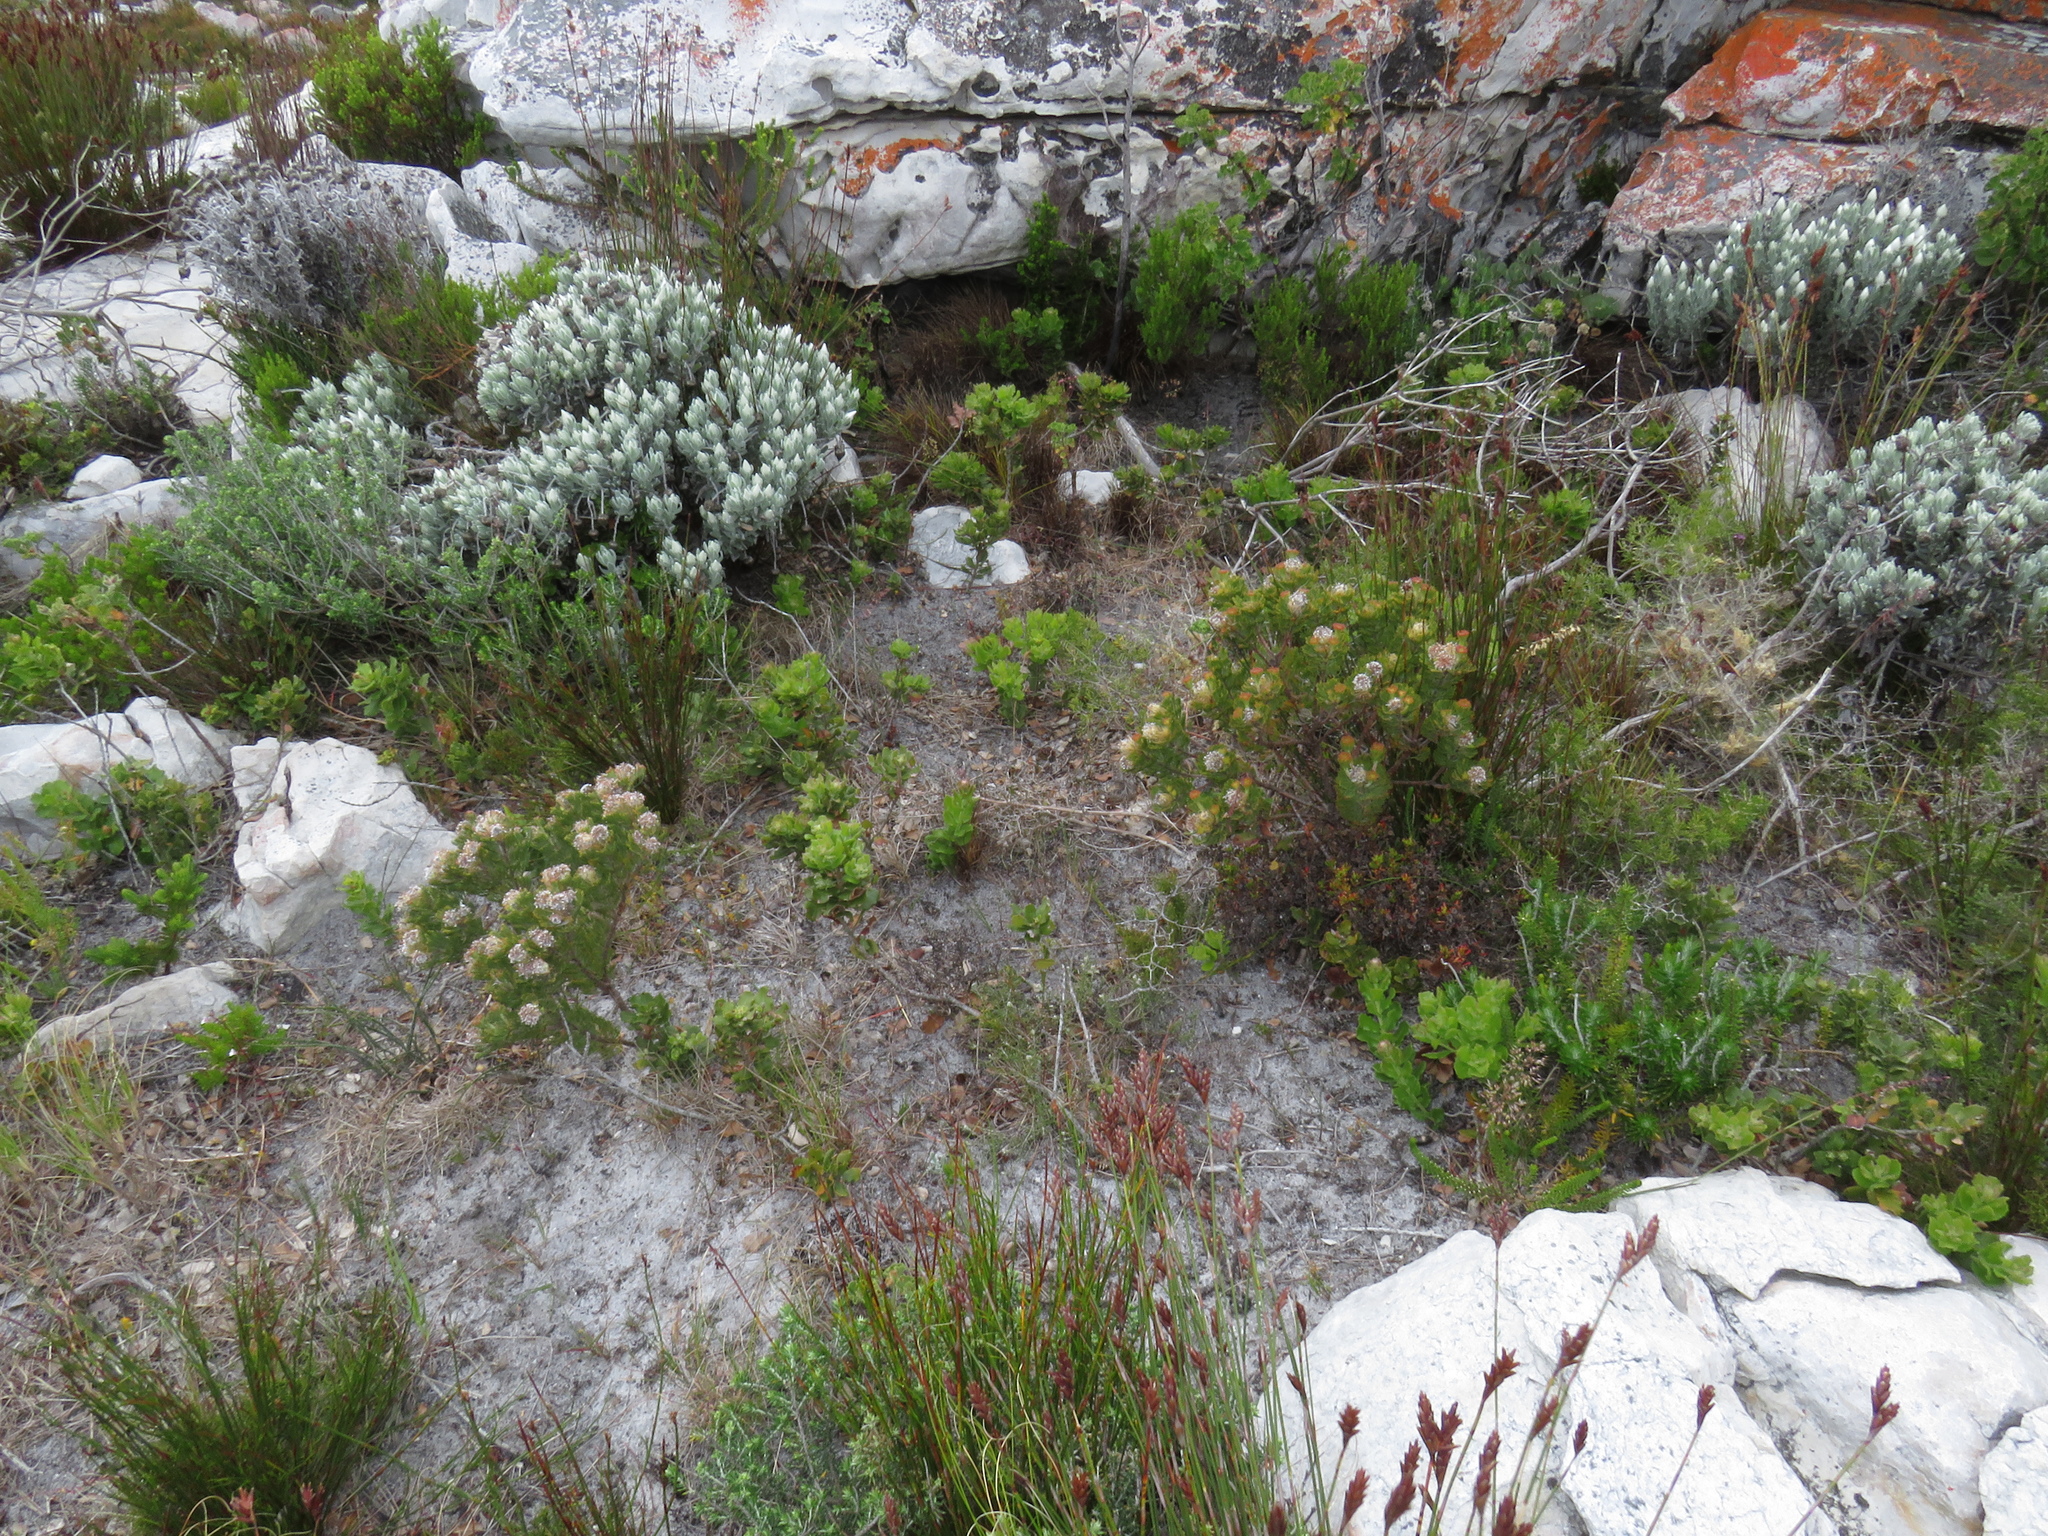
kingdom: Plantae
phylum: Tracheophyta
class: Magnoliopsida
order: Fagales
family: Myricaceae
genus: Morella
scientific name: Morella kraussiana
